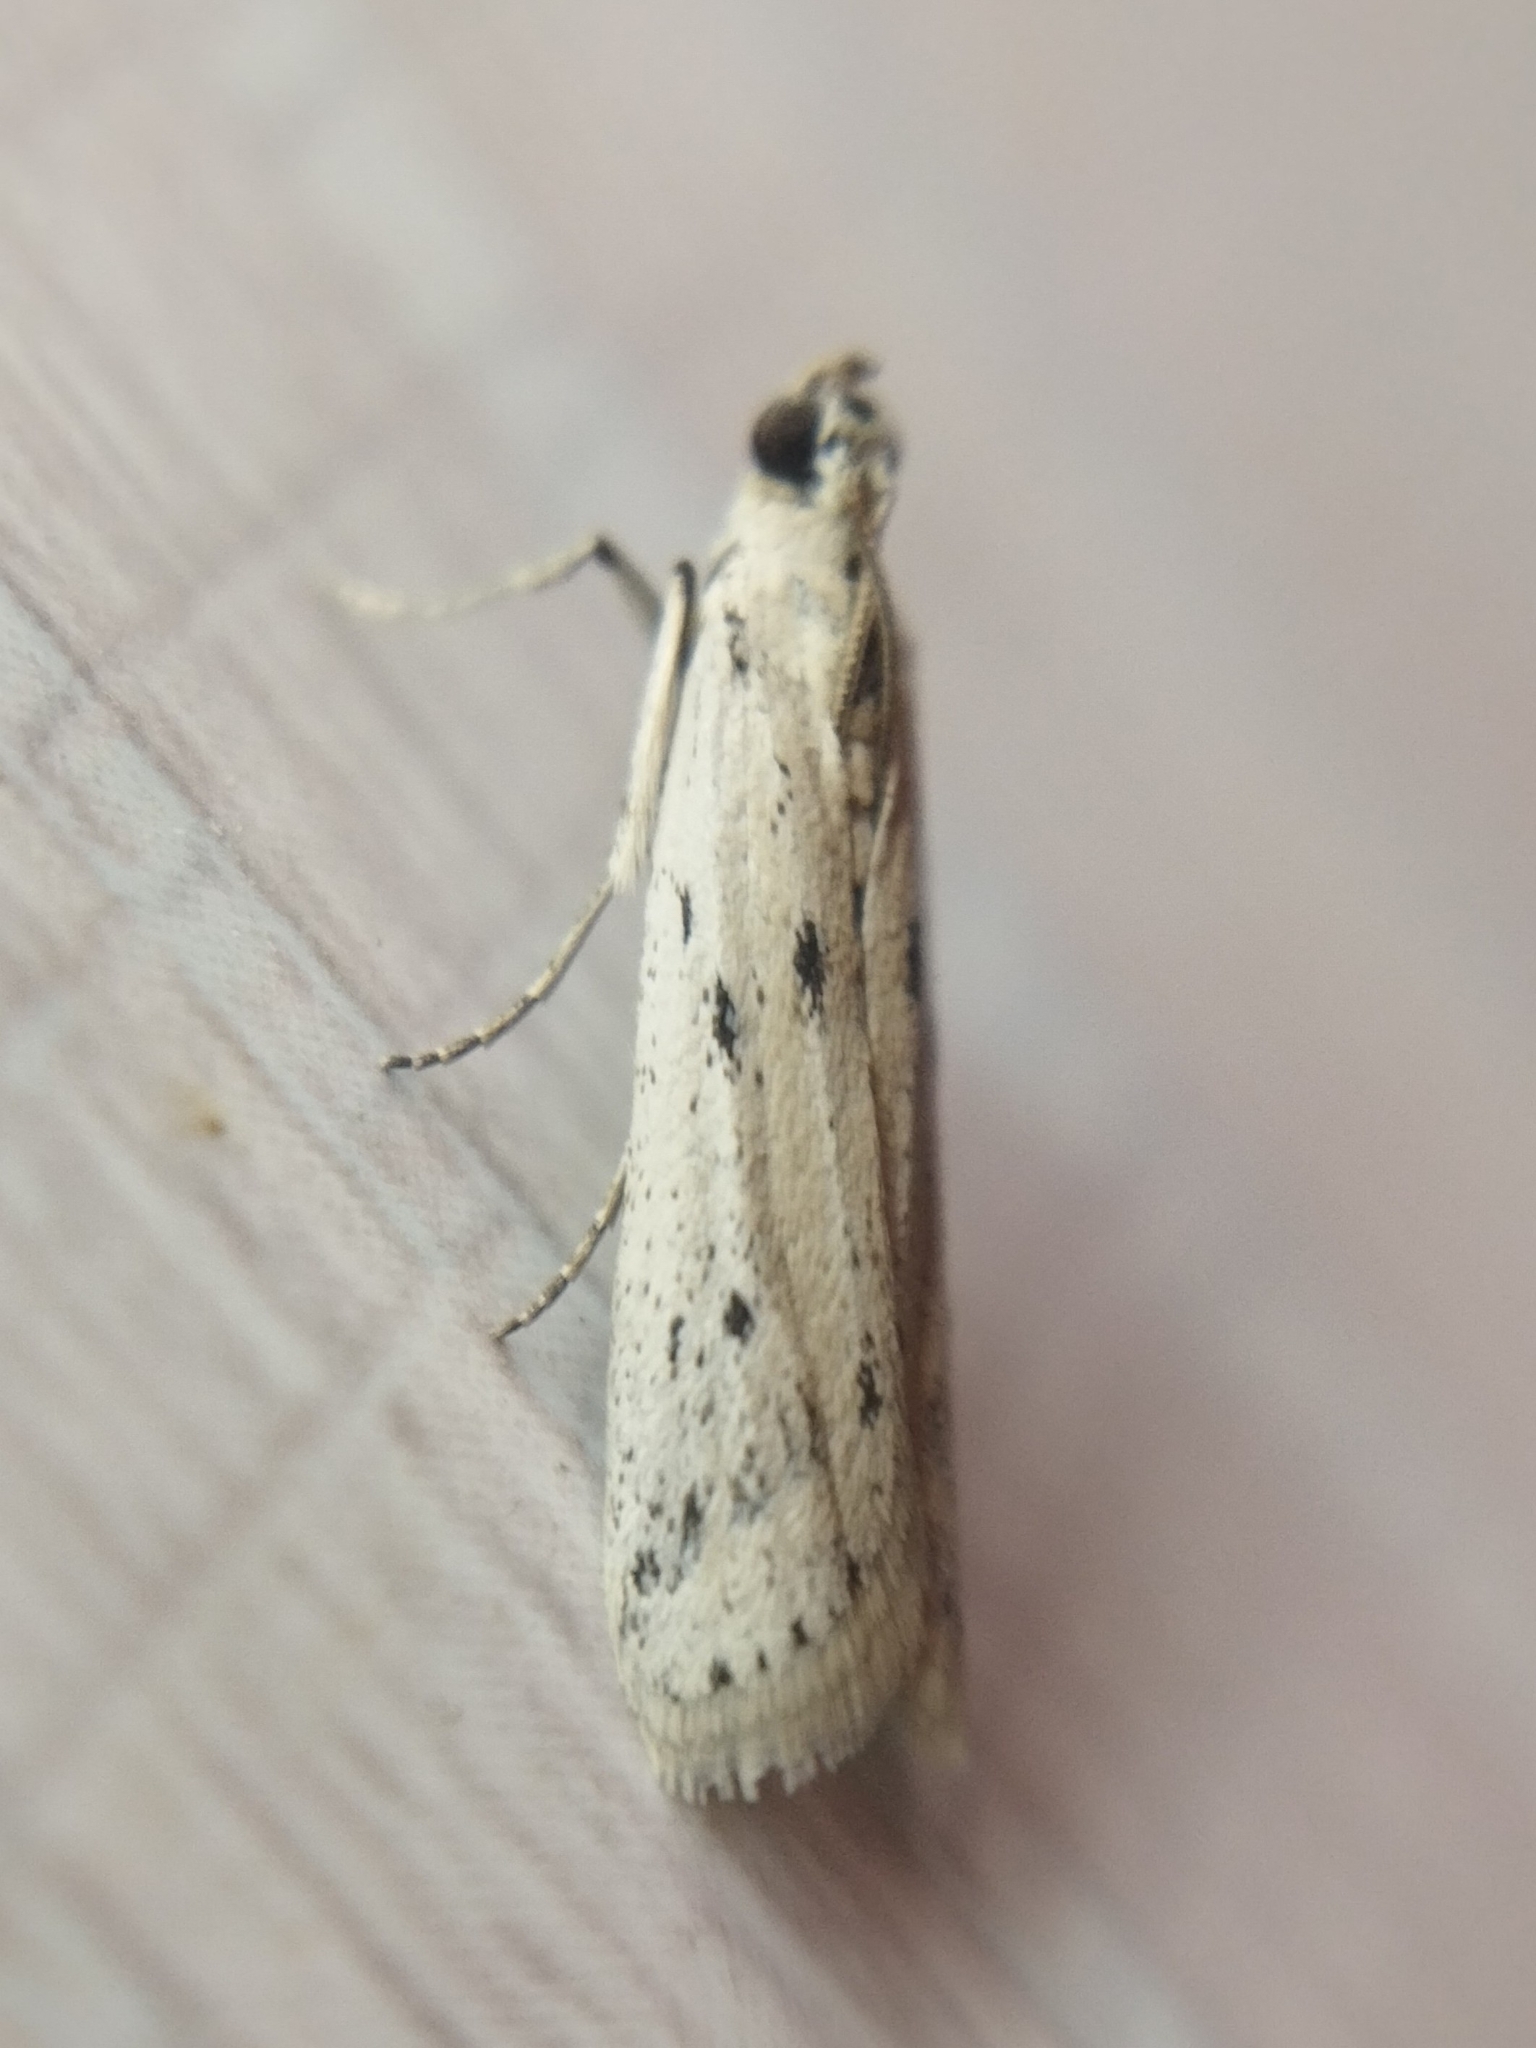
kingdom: Animalia
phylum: Arthropoda
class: Insecta
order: Lepidoptera
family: Pyralidae
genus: Phycitodes
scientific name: Phycitodes lacteella
